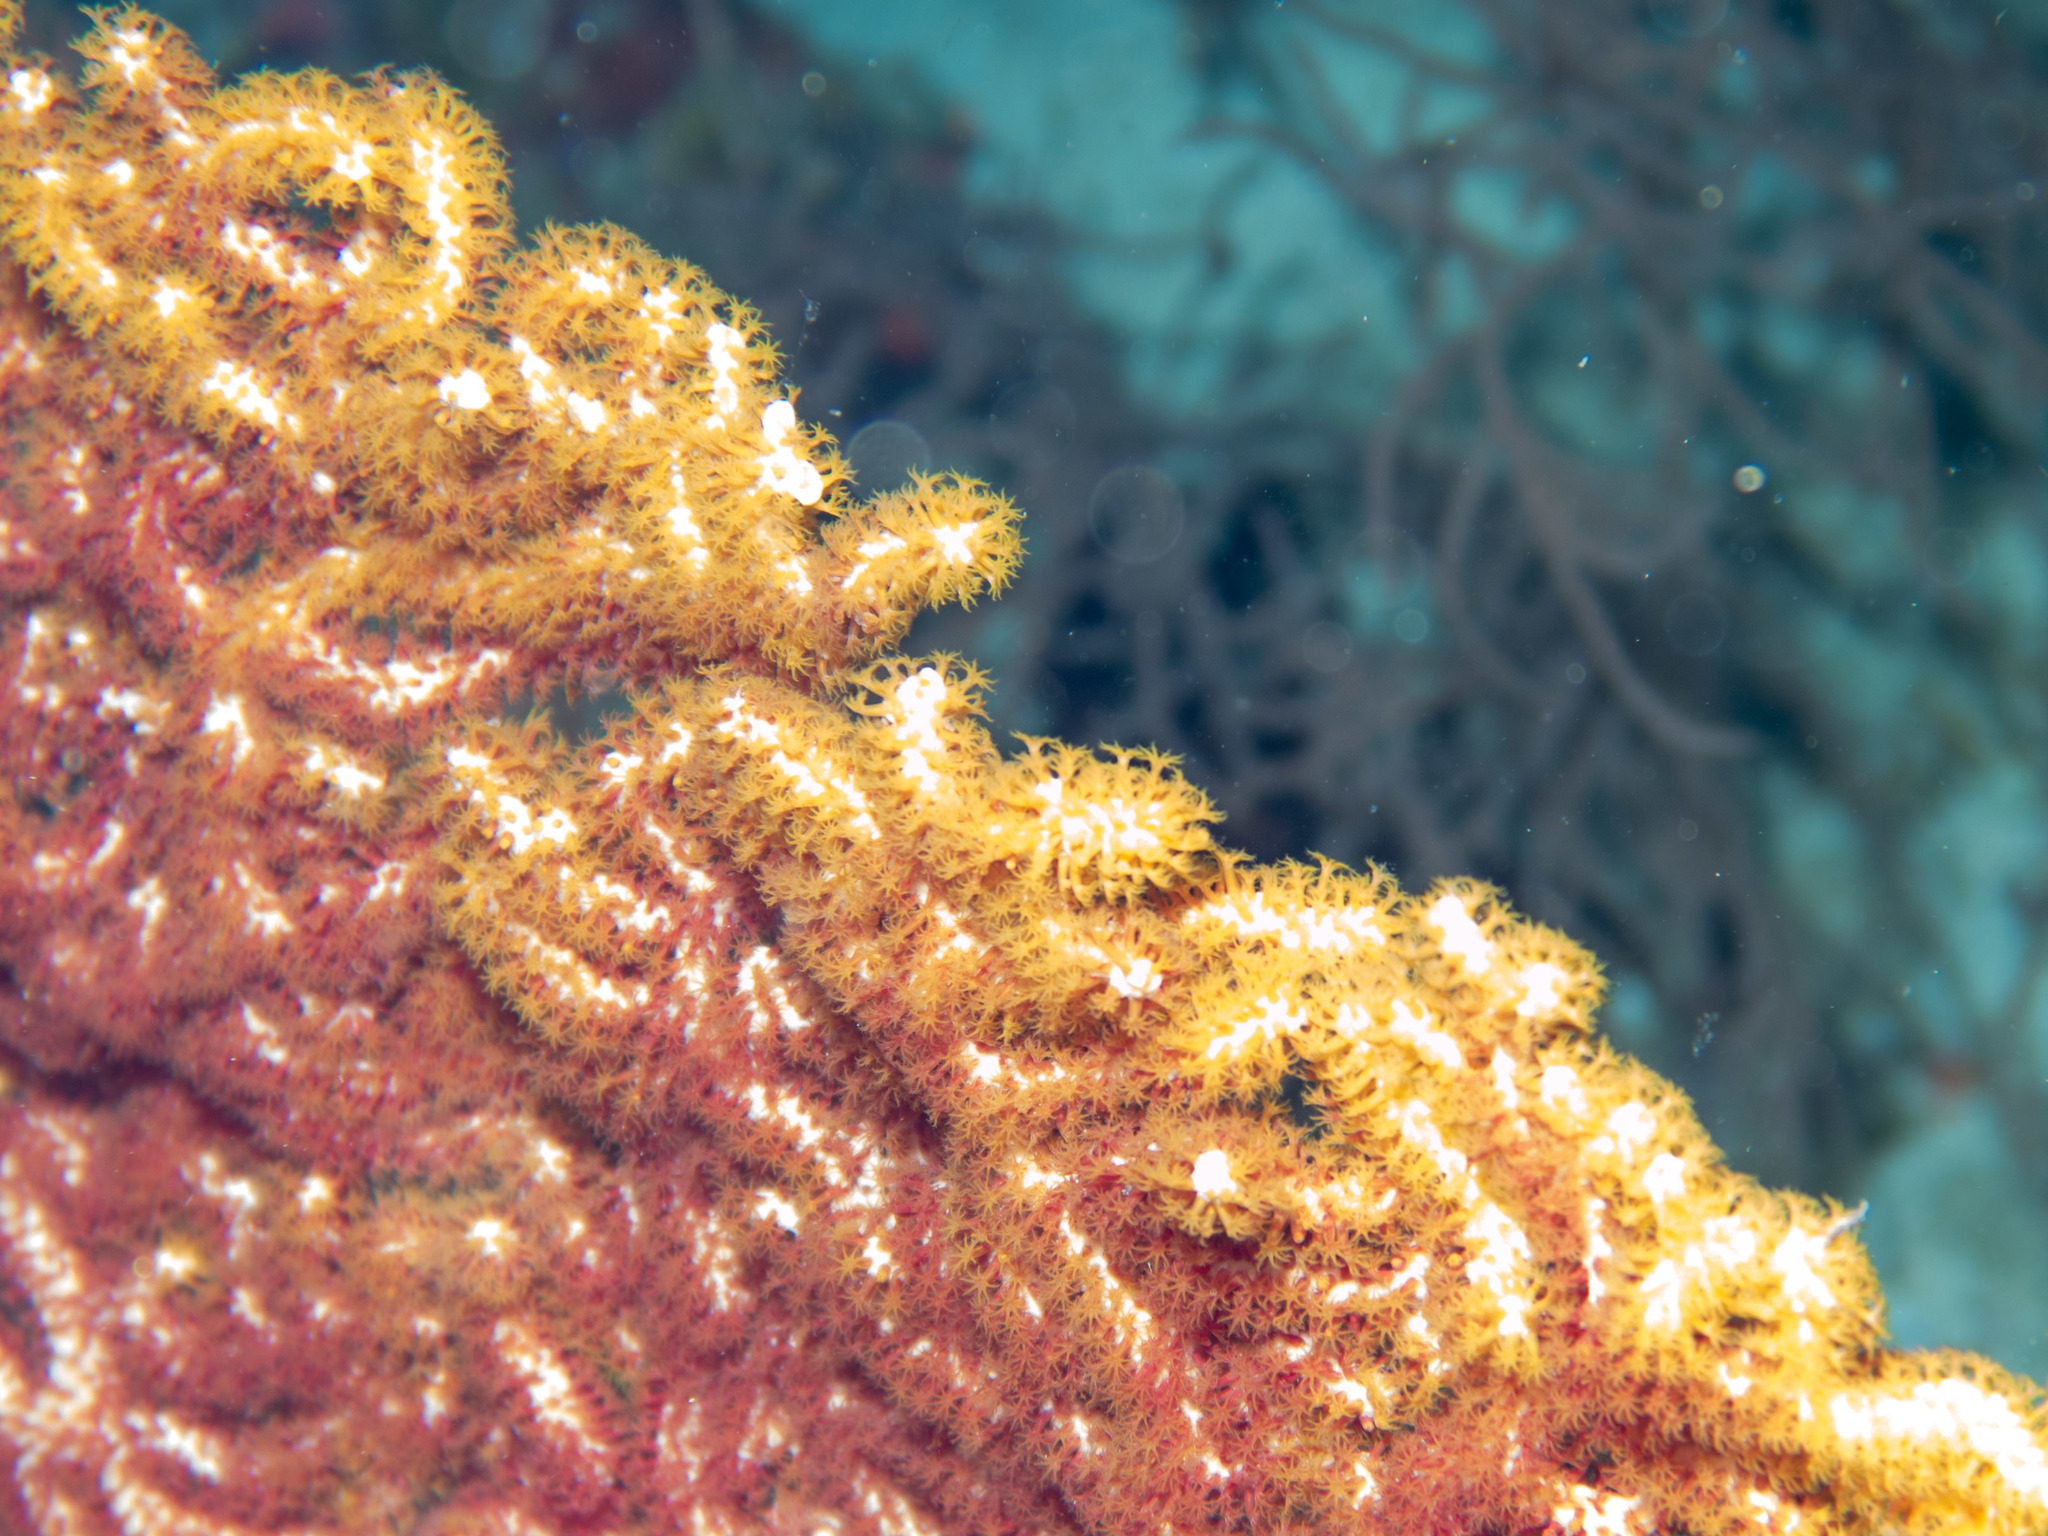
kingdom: Animalia
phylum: Cnidaria
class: Anthozoa
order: Malacalcyonacea
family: Subergorgiidae
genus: Annella
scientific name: Annella mollis
